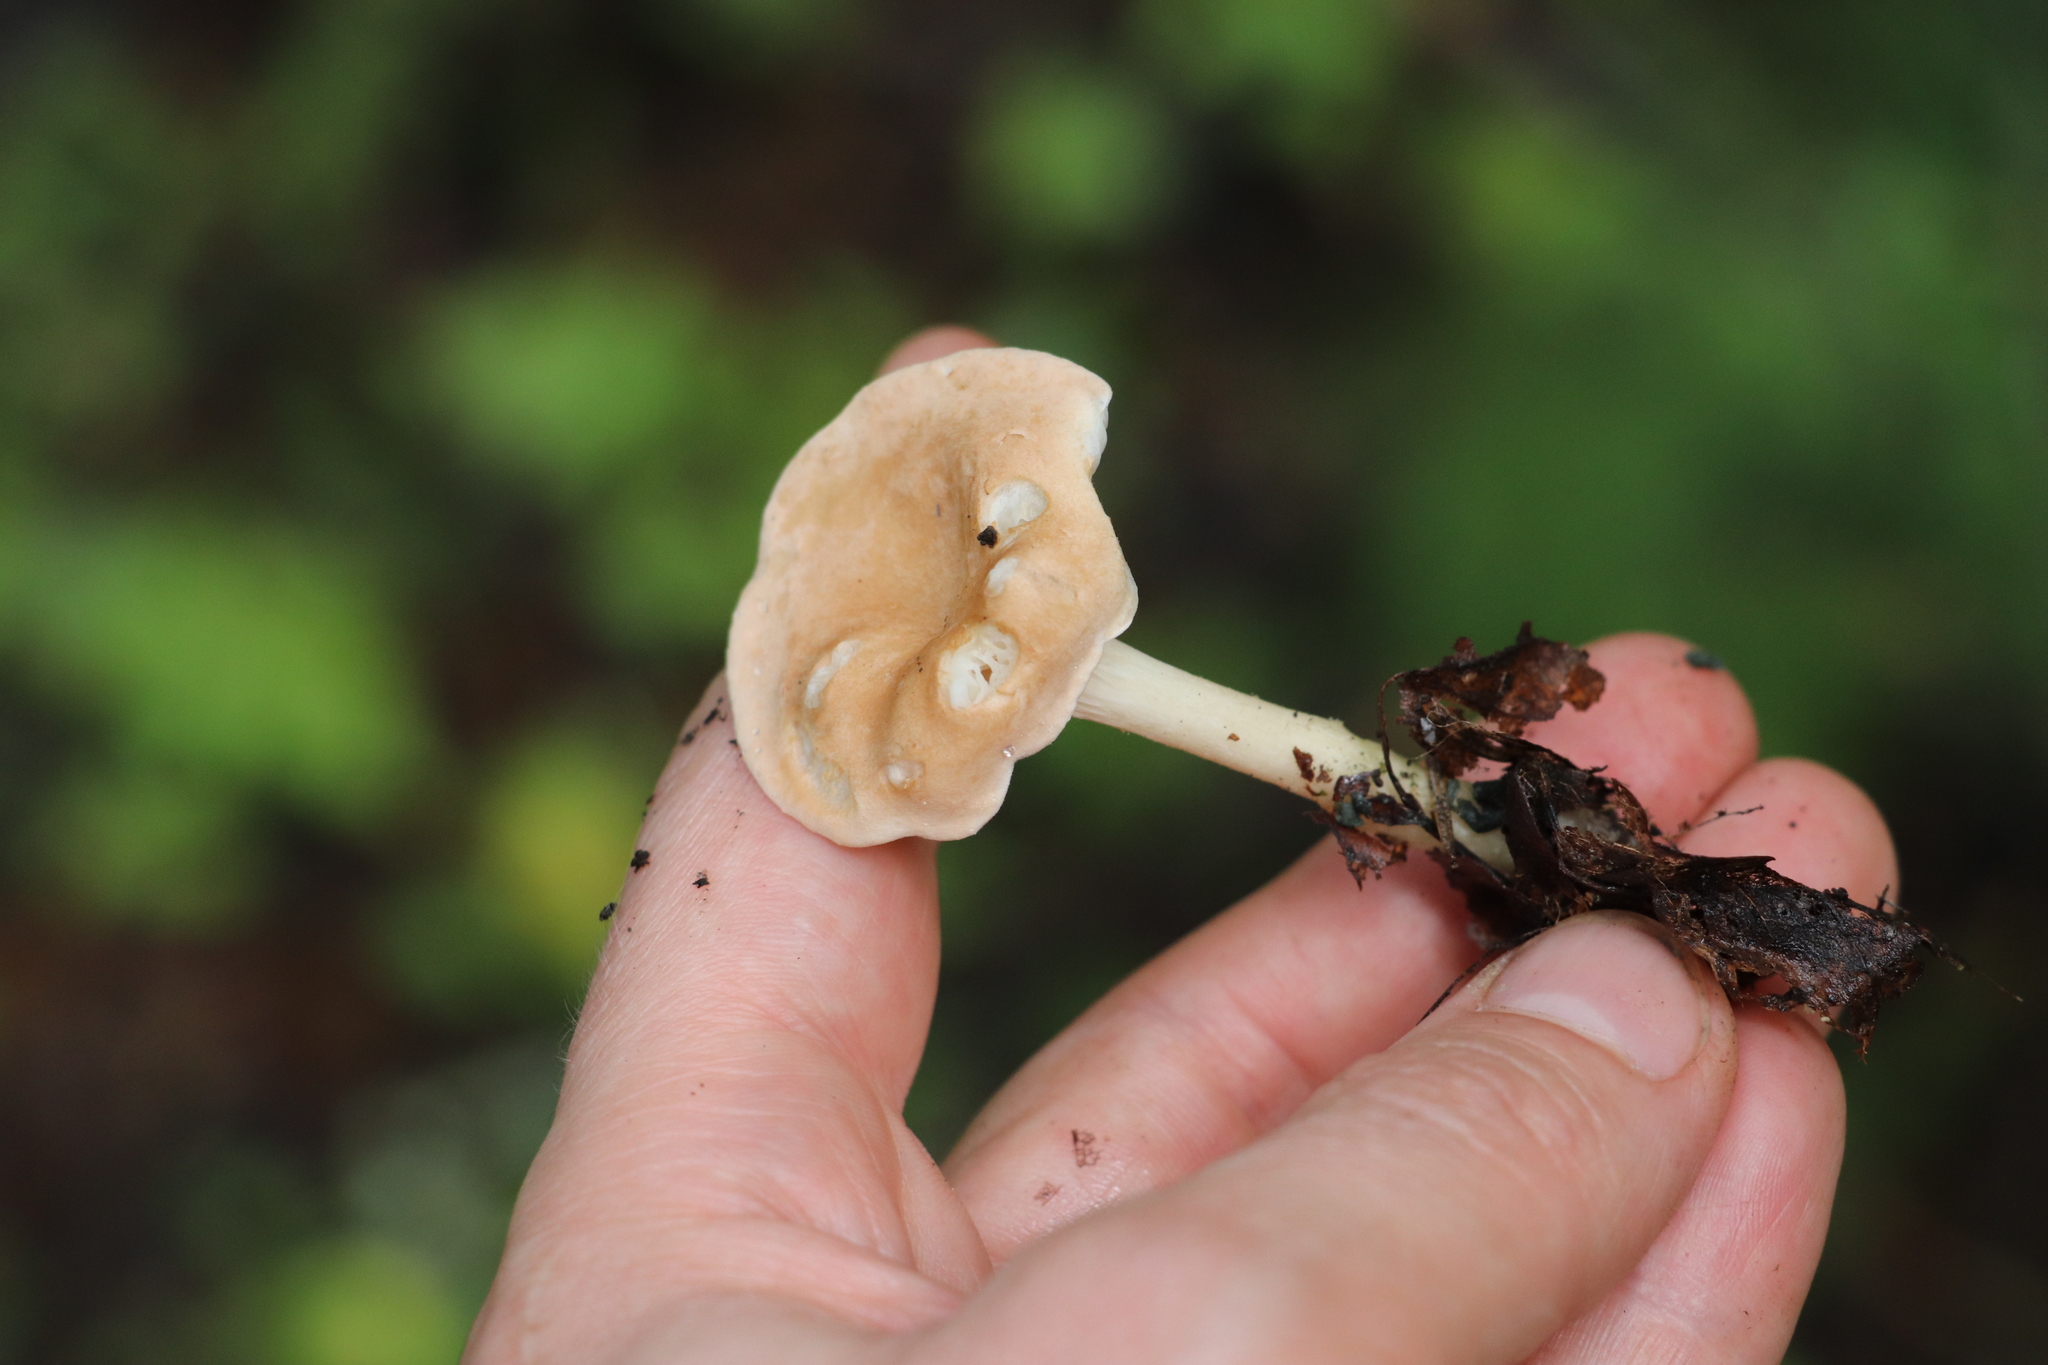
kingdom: Fungi
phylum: Basidiomycota
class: Agaricomycetes
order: Agaricales
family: Tricholomataceae
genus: Infundibulicybe
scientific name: Infundibulicybe gibba
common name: Common funnel
